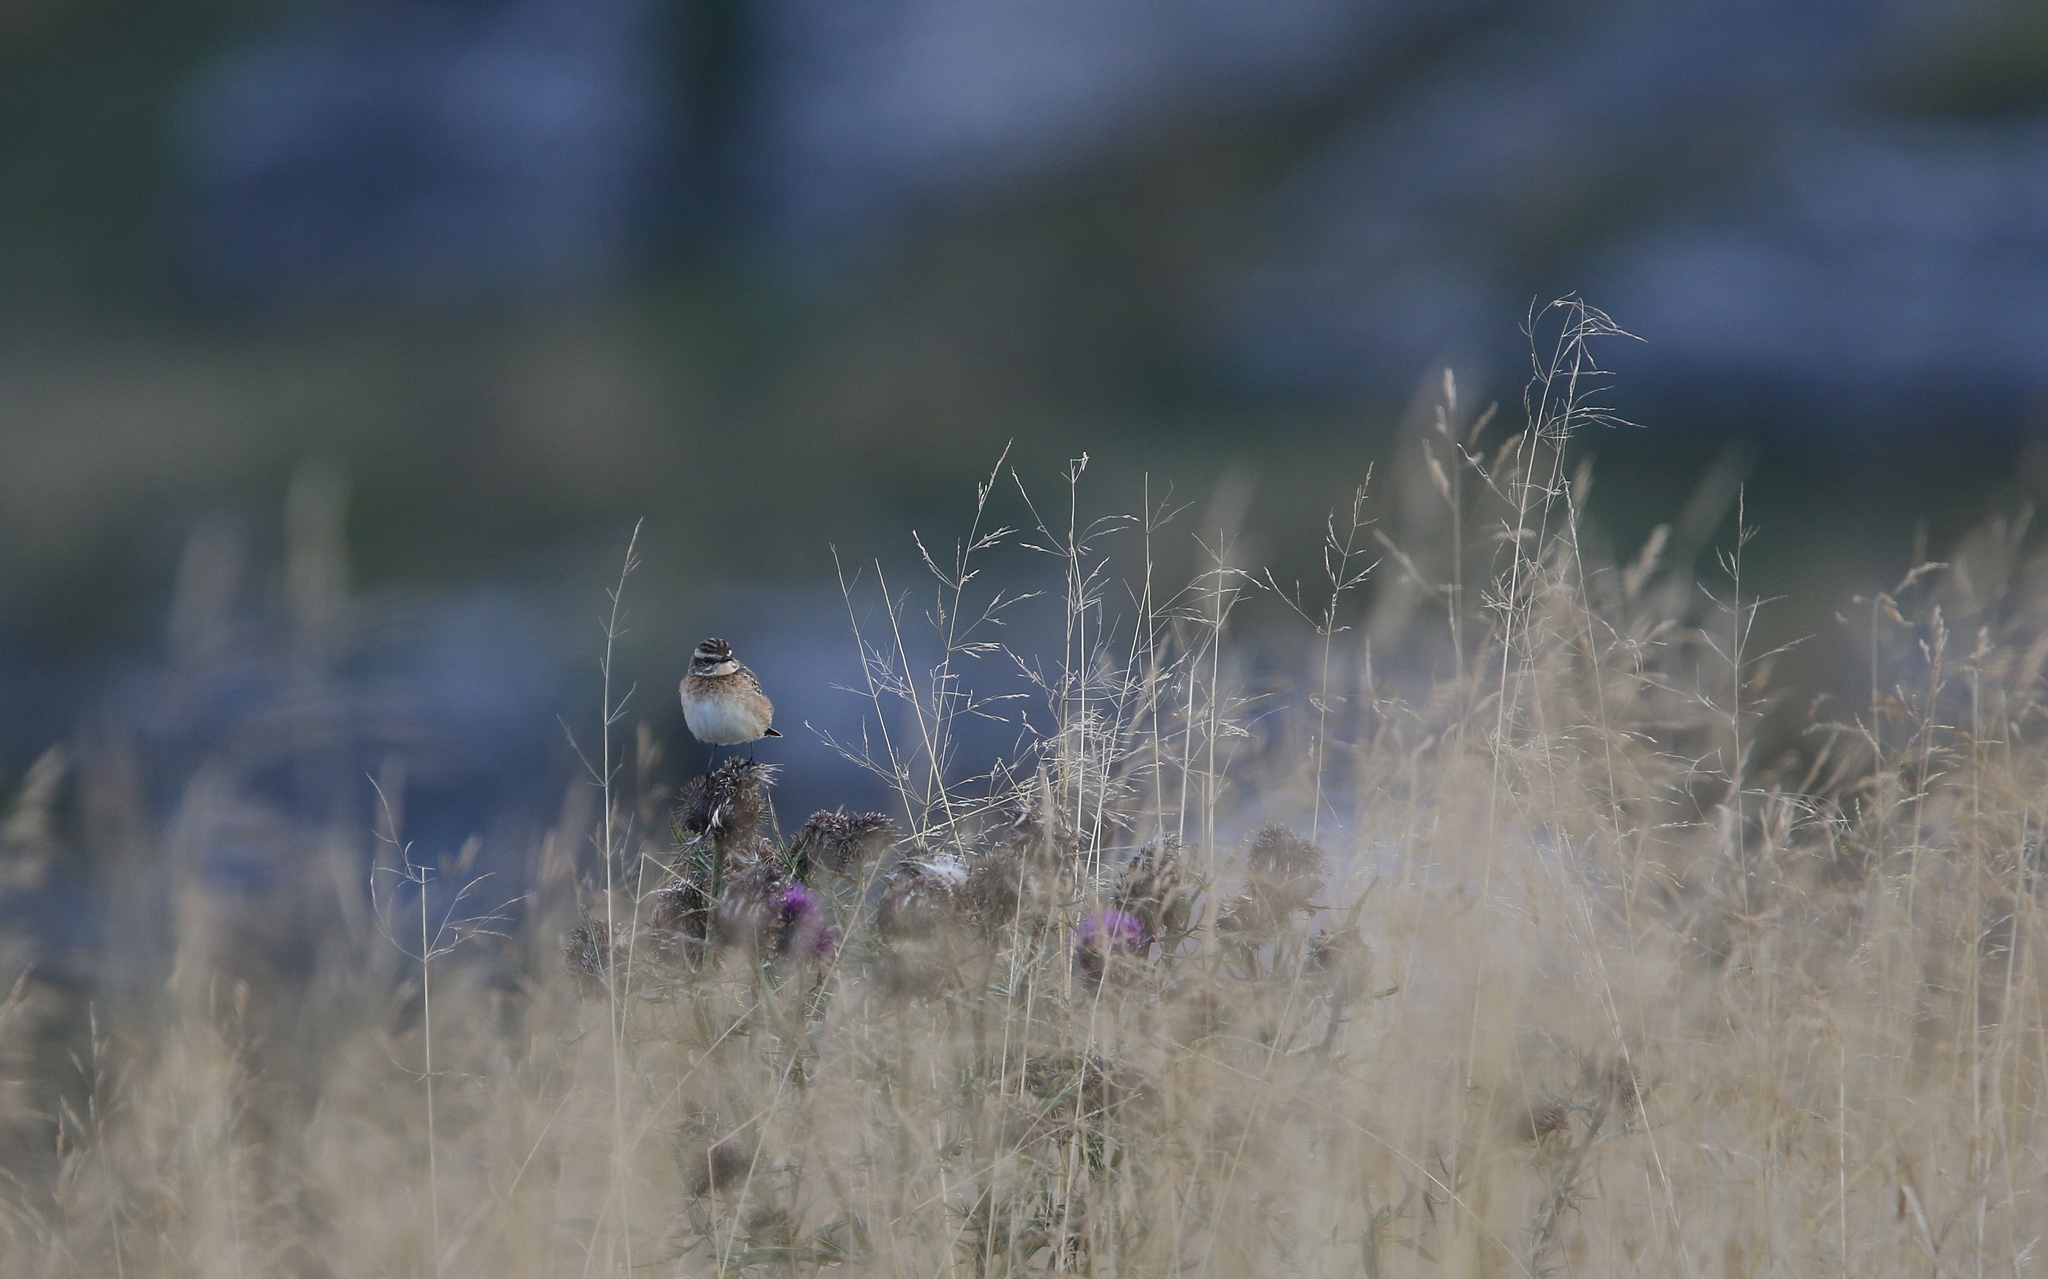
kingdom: Animalia
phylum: Chordata
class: Aves
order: Passeriformes
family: Muscicapidae
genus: Saxicola
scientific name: Saxicola rubetra
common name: Whinchat
